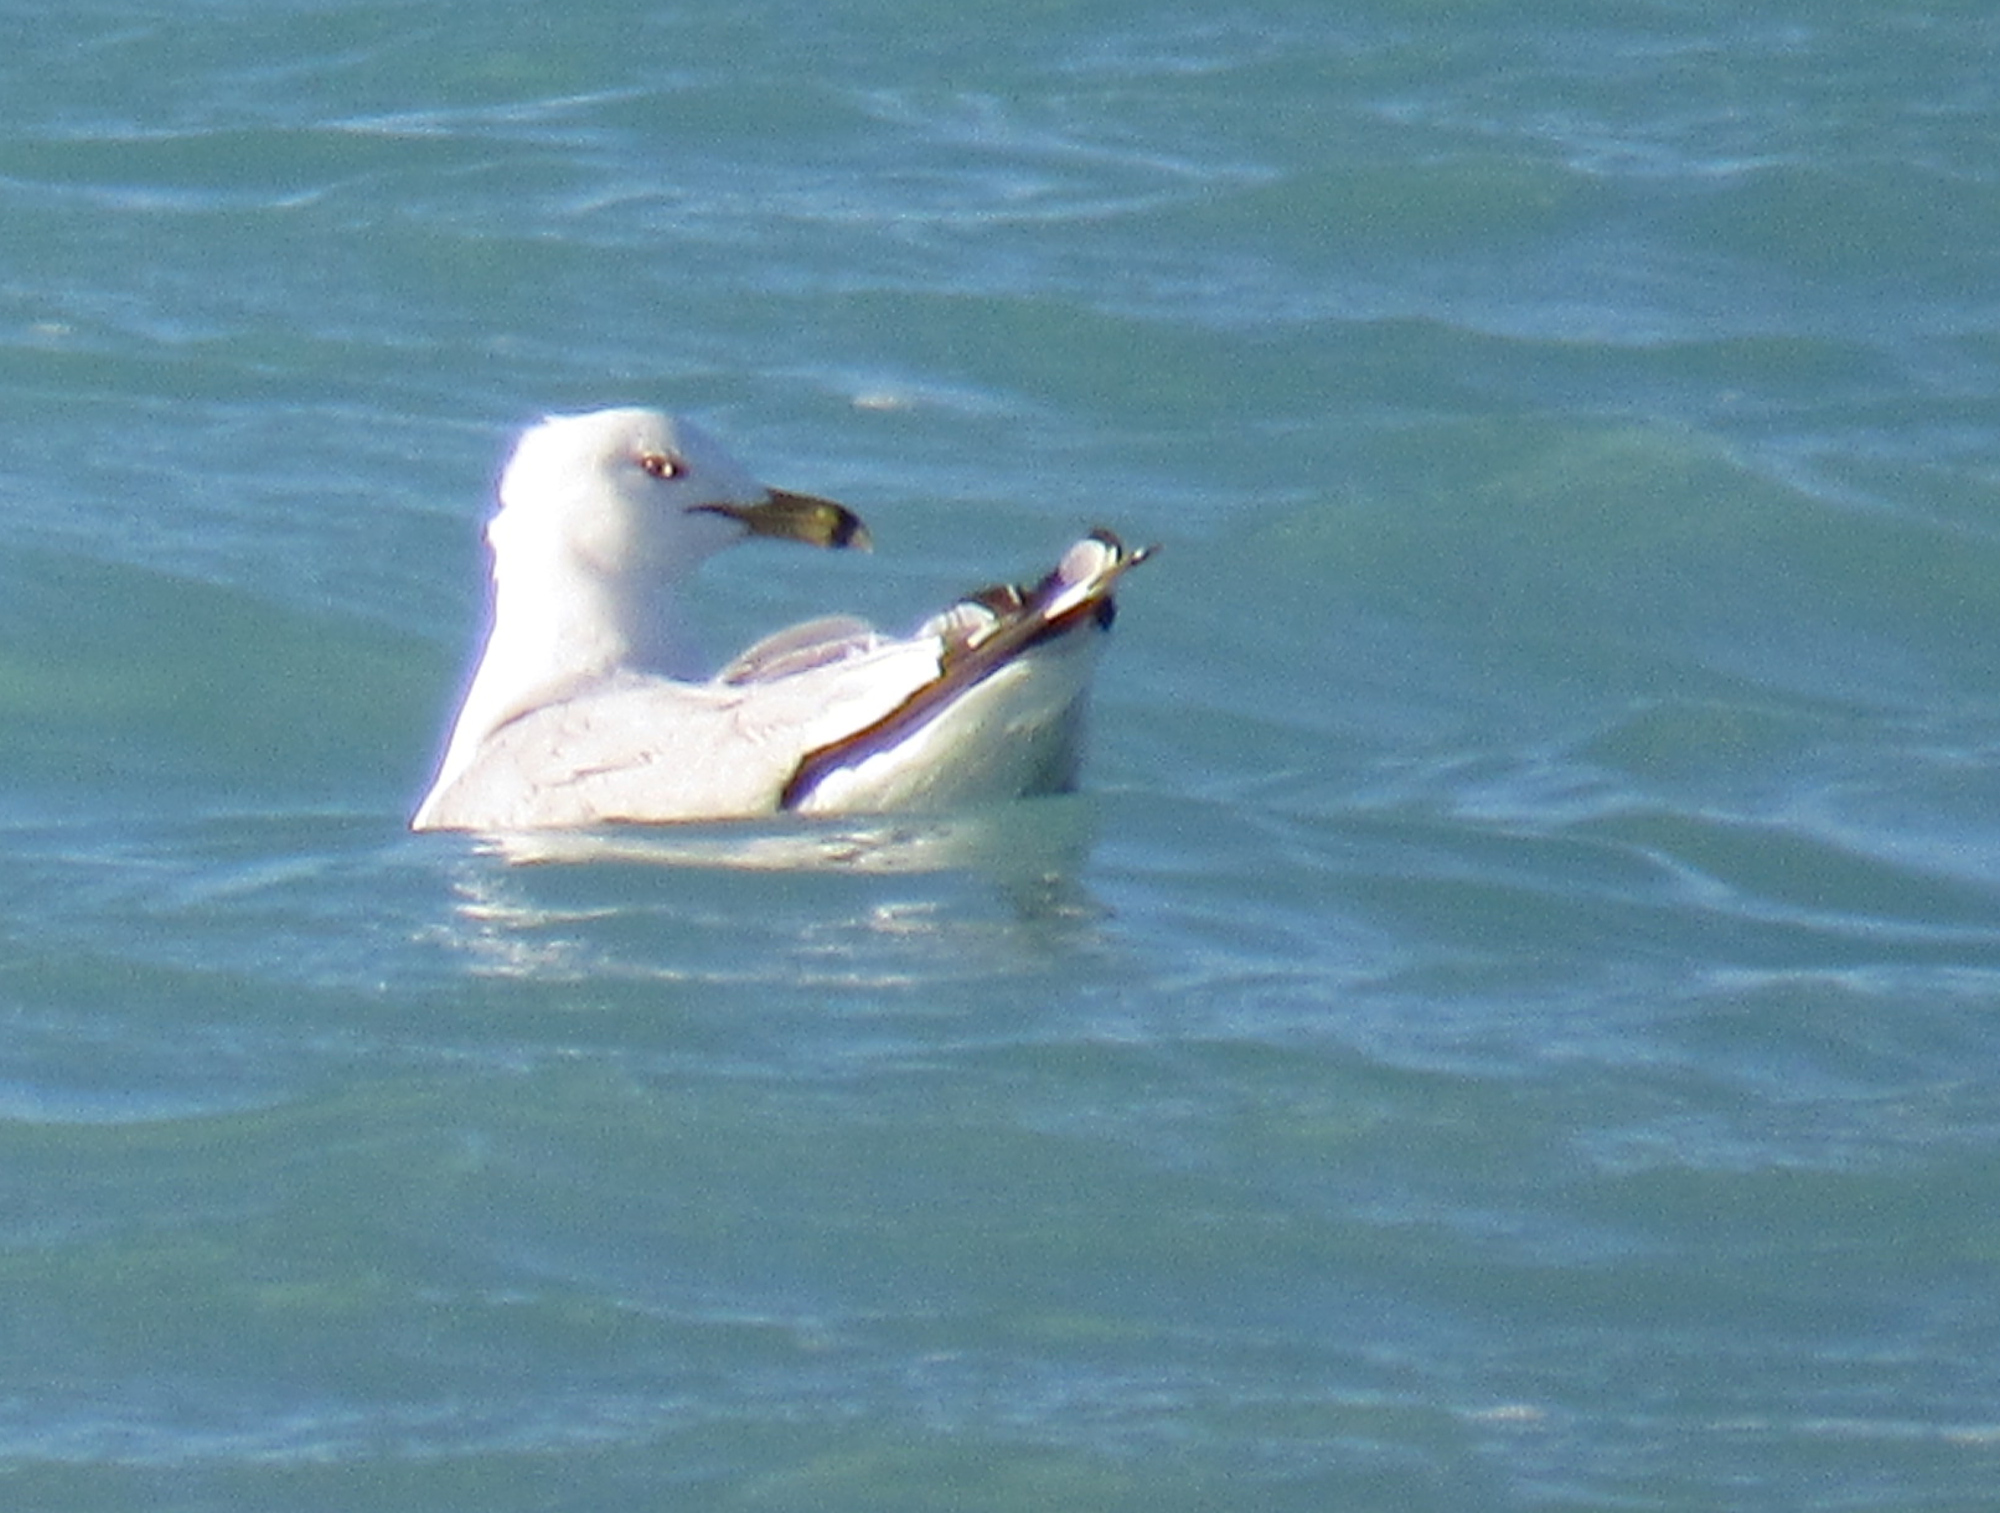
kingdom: Animalia
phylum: Chordata
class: Aves
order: Charadriiformes
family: Laridae
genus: Larus
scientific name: Larus delawarensis
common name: Ring-billed gull
